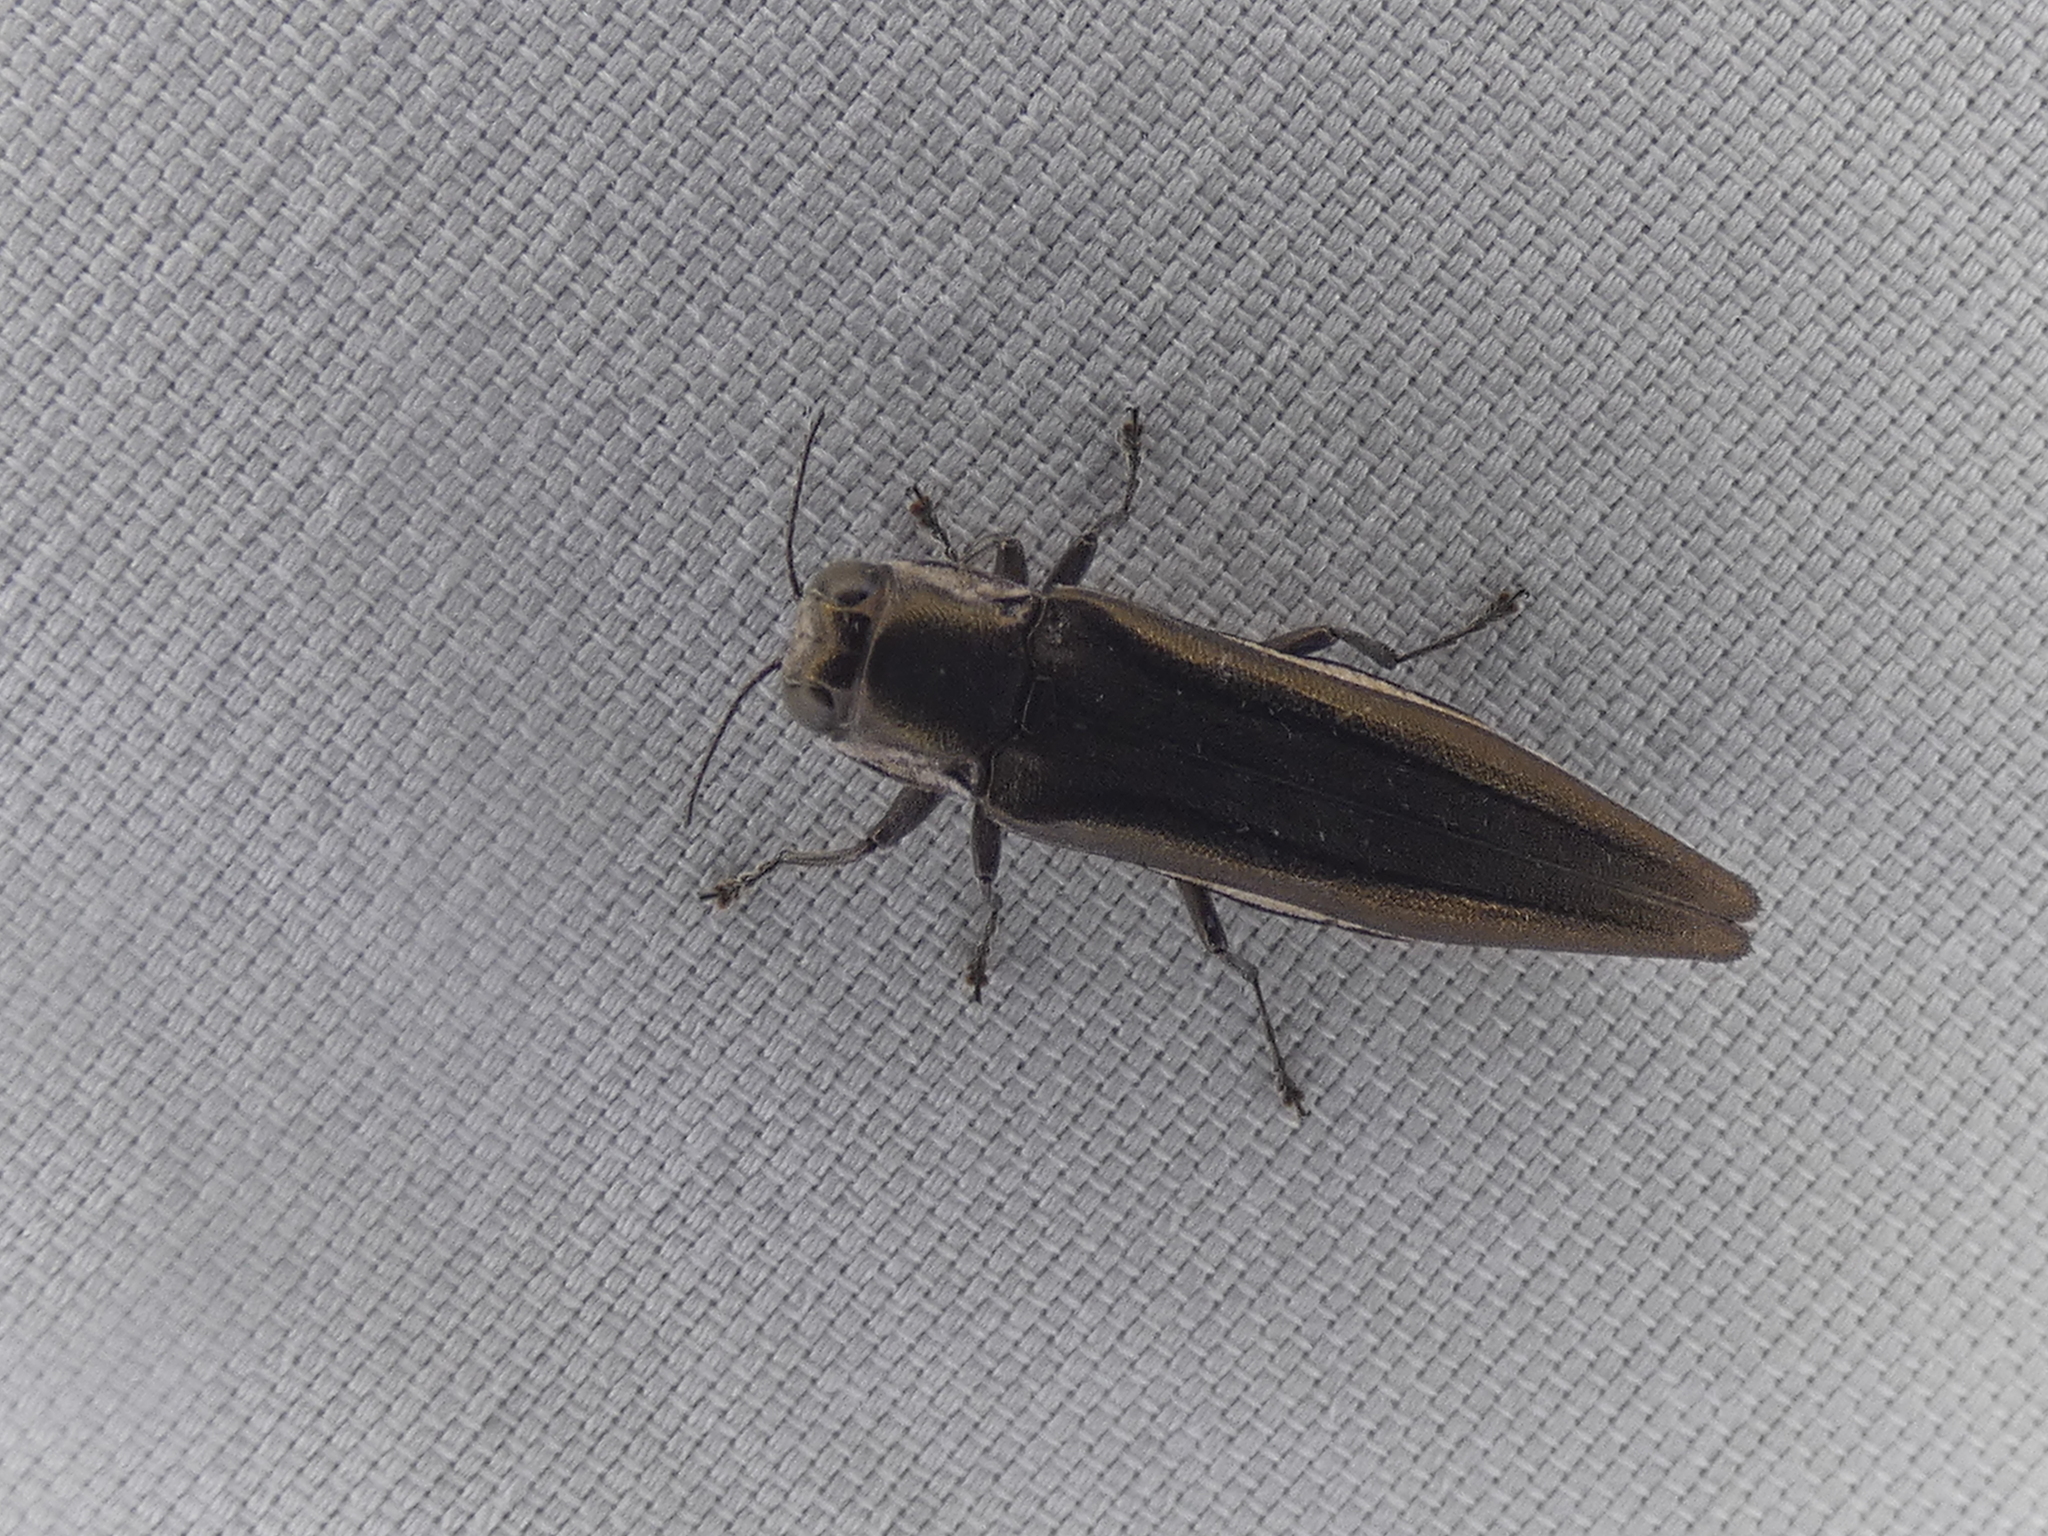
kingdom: Animalia
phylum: Arthropoda
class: Insecta
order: Coleoptera
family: Buprestidae
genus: Agrilus
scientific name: Agrilus macer
